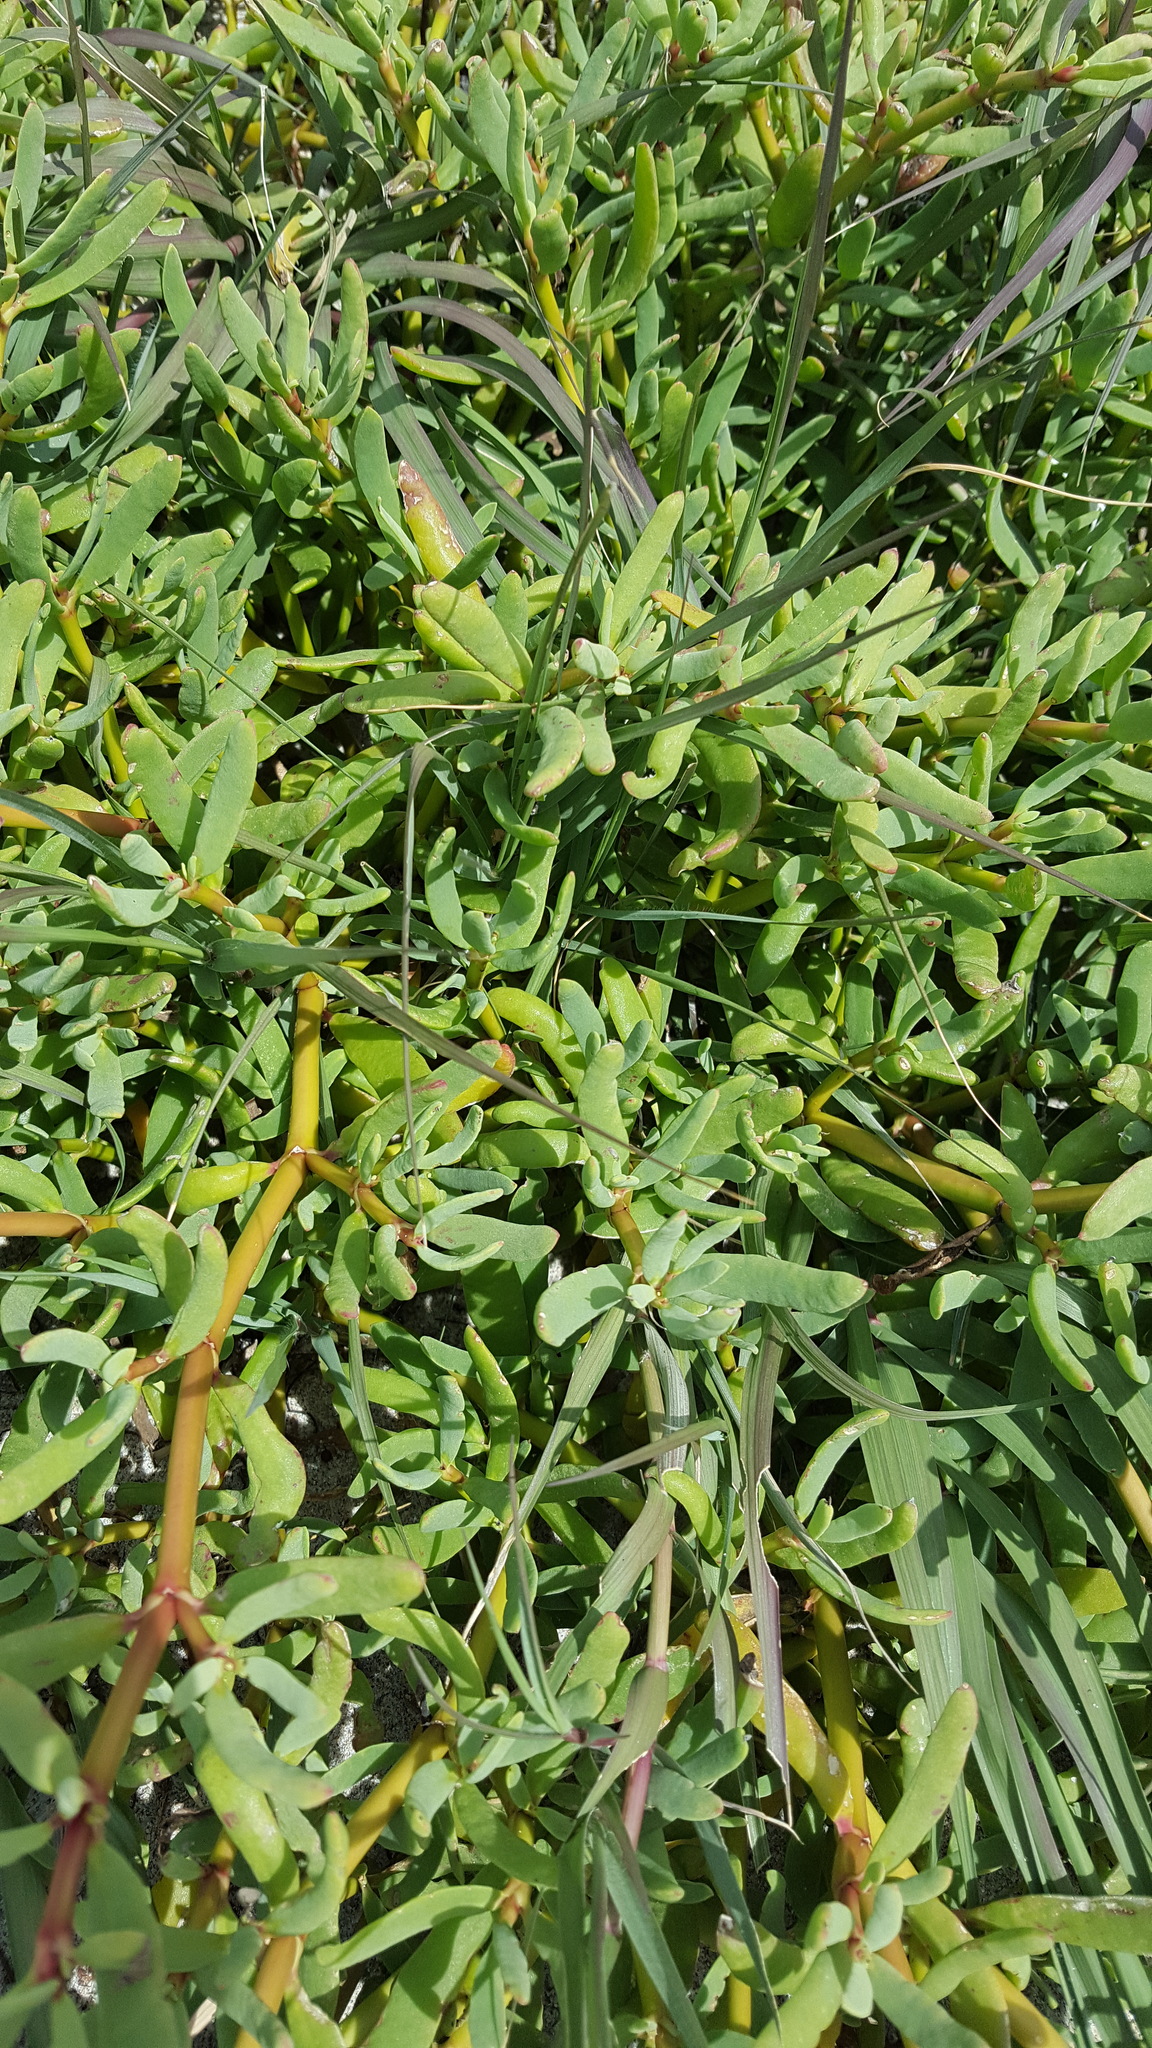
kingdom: Plantae
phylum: Tracheophyta
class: Magnoliopsida
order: Caryophyllales
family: Aizoaceae
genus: Sesuvium
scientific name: Sesuvium portulacastrum
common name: Sea-purslane
